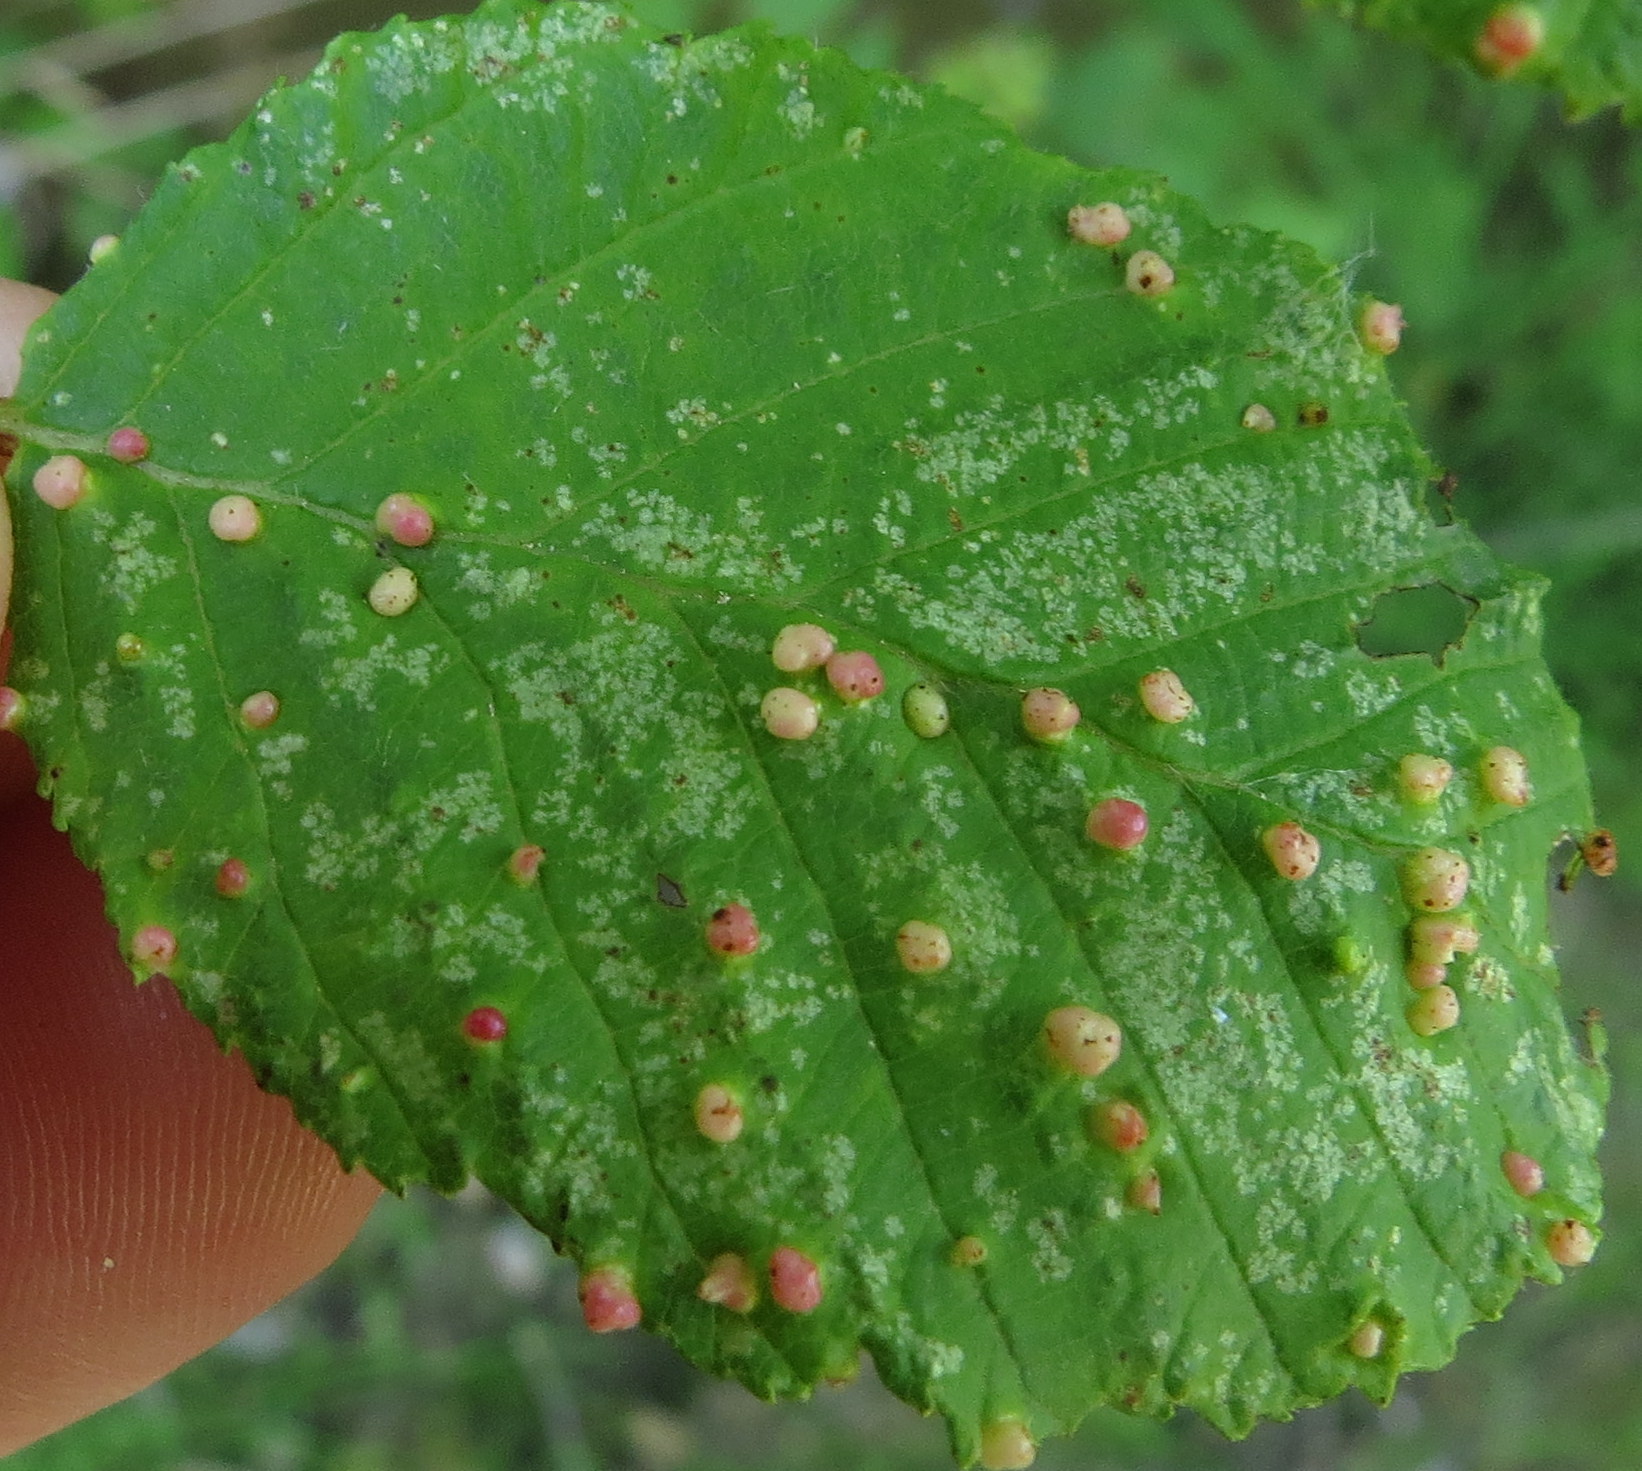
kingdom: Animalia
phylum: Arthropoda
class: Arachnida
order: Trombidiformes
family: Eriophyidae
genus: Eriophyes
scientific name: Eriophyes laevis
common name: Alder leaf gall mite
